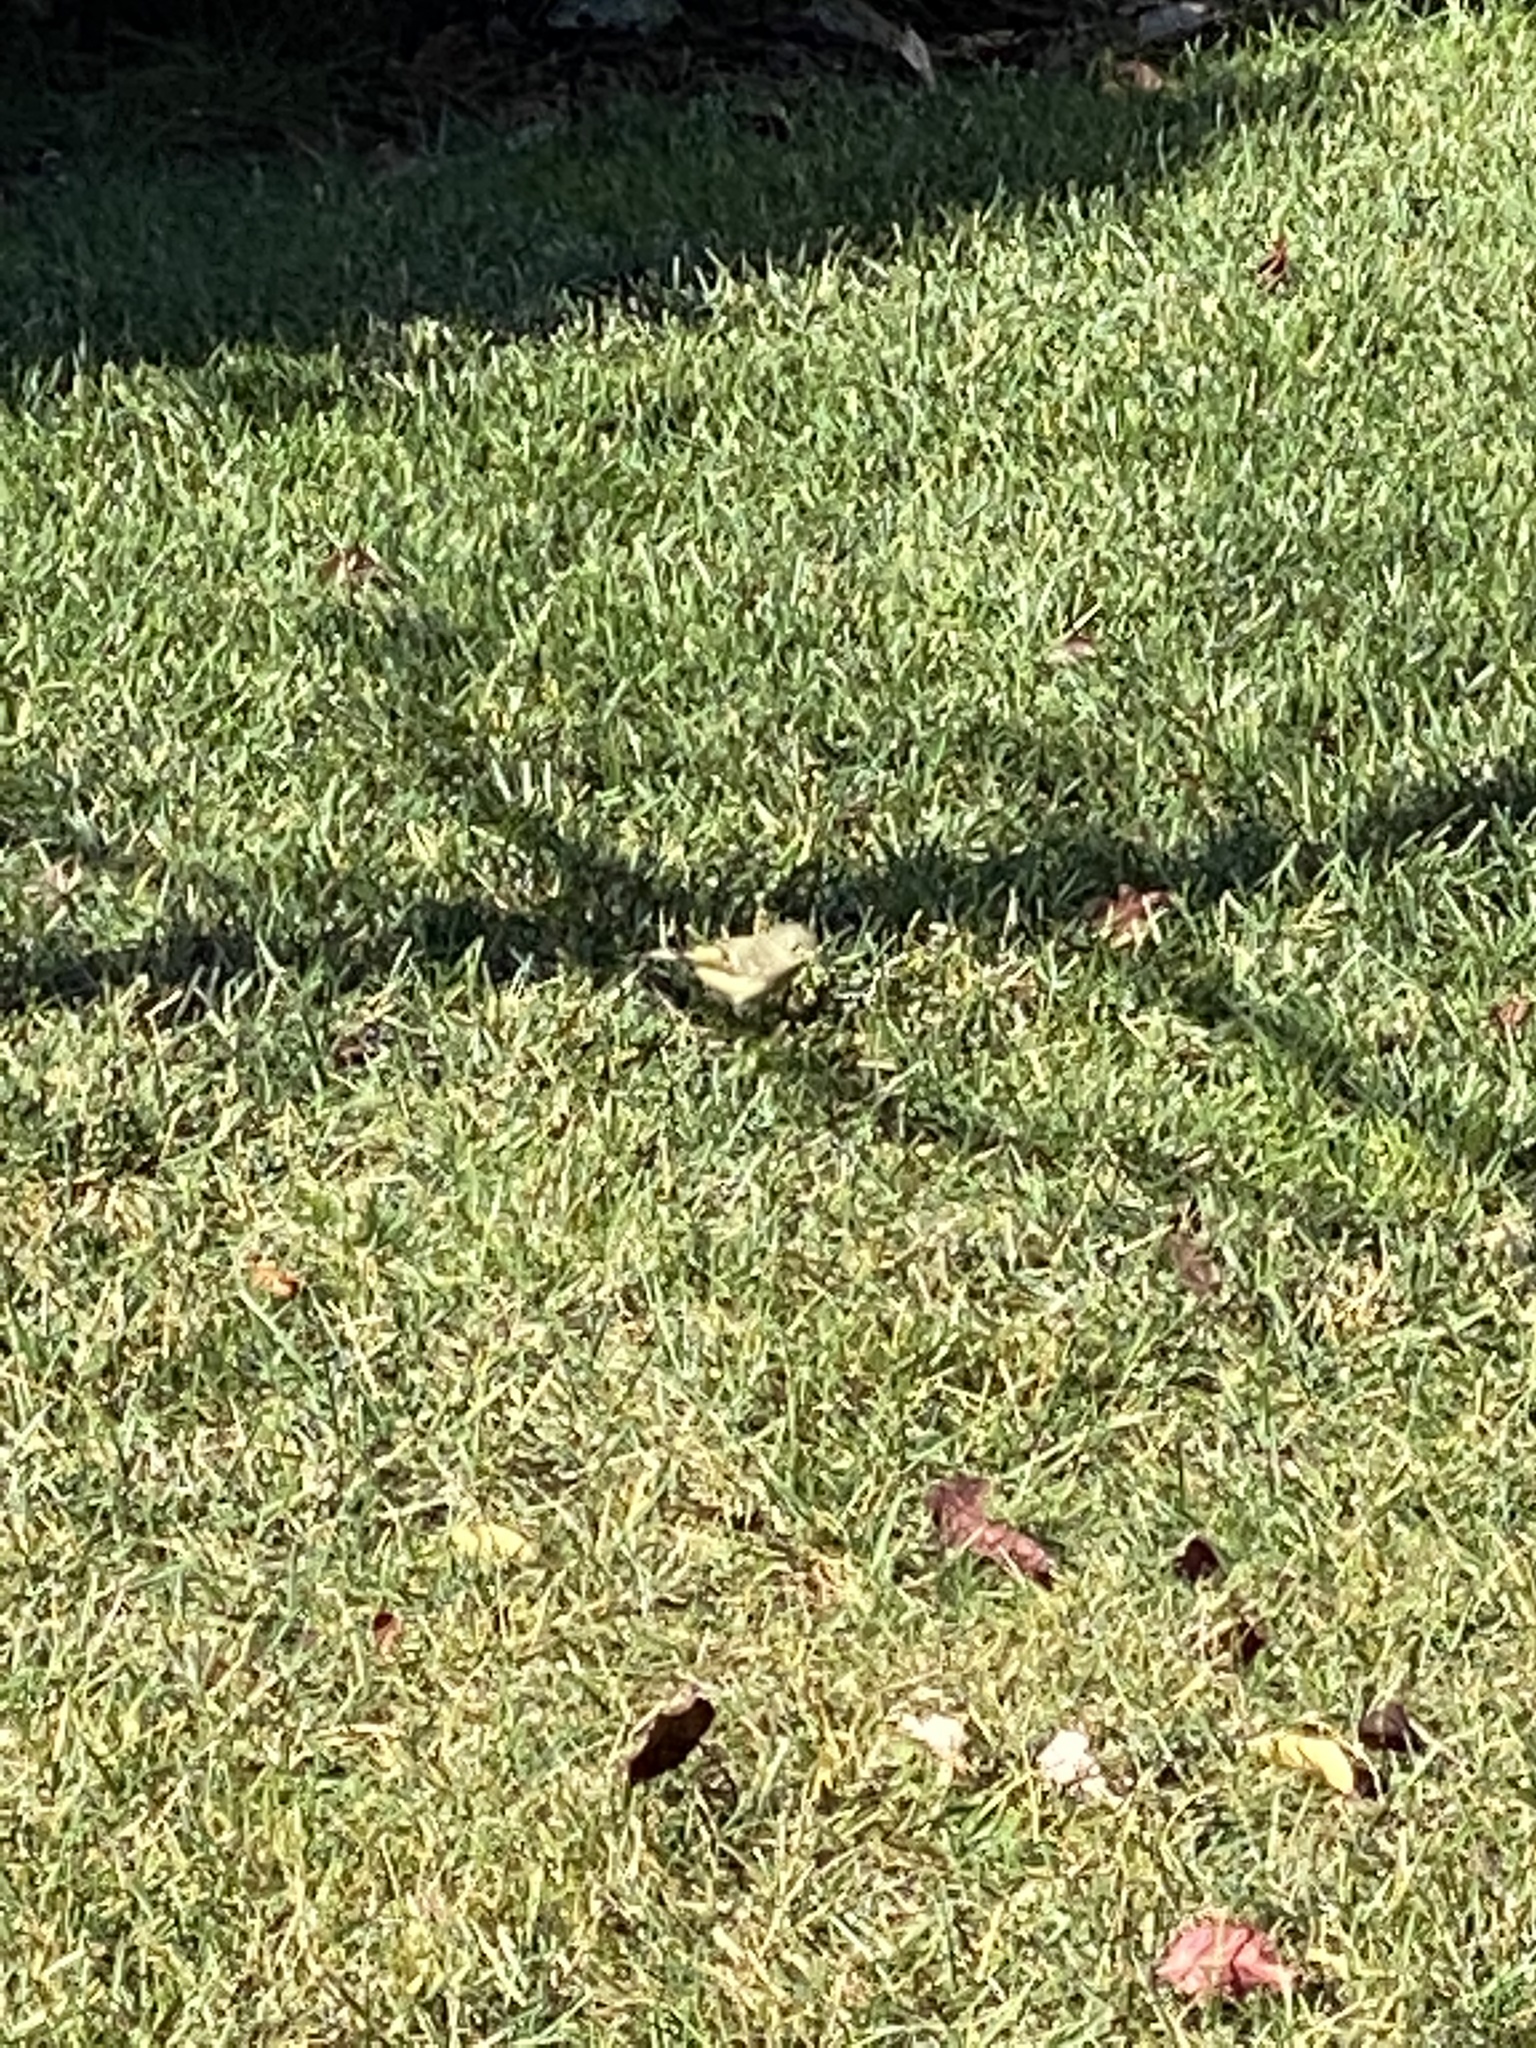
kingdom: Animalia
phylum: Chordata
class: Aves
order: Passeriformes
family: Regulidae
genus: Regulus
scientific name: Regulus calendula
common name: Ruby-crowned kinglet
